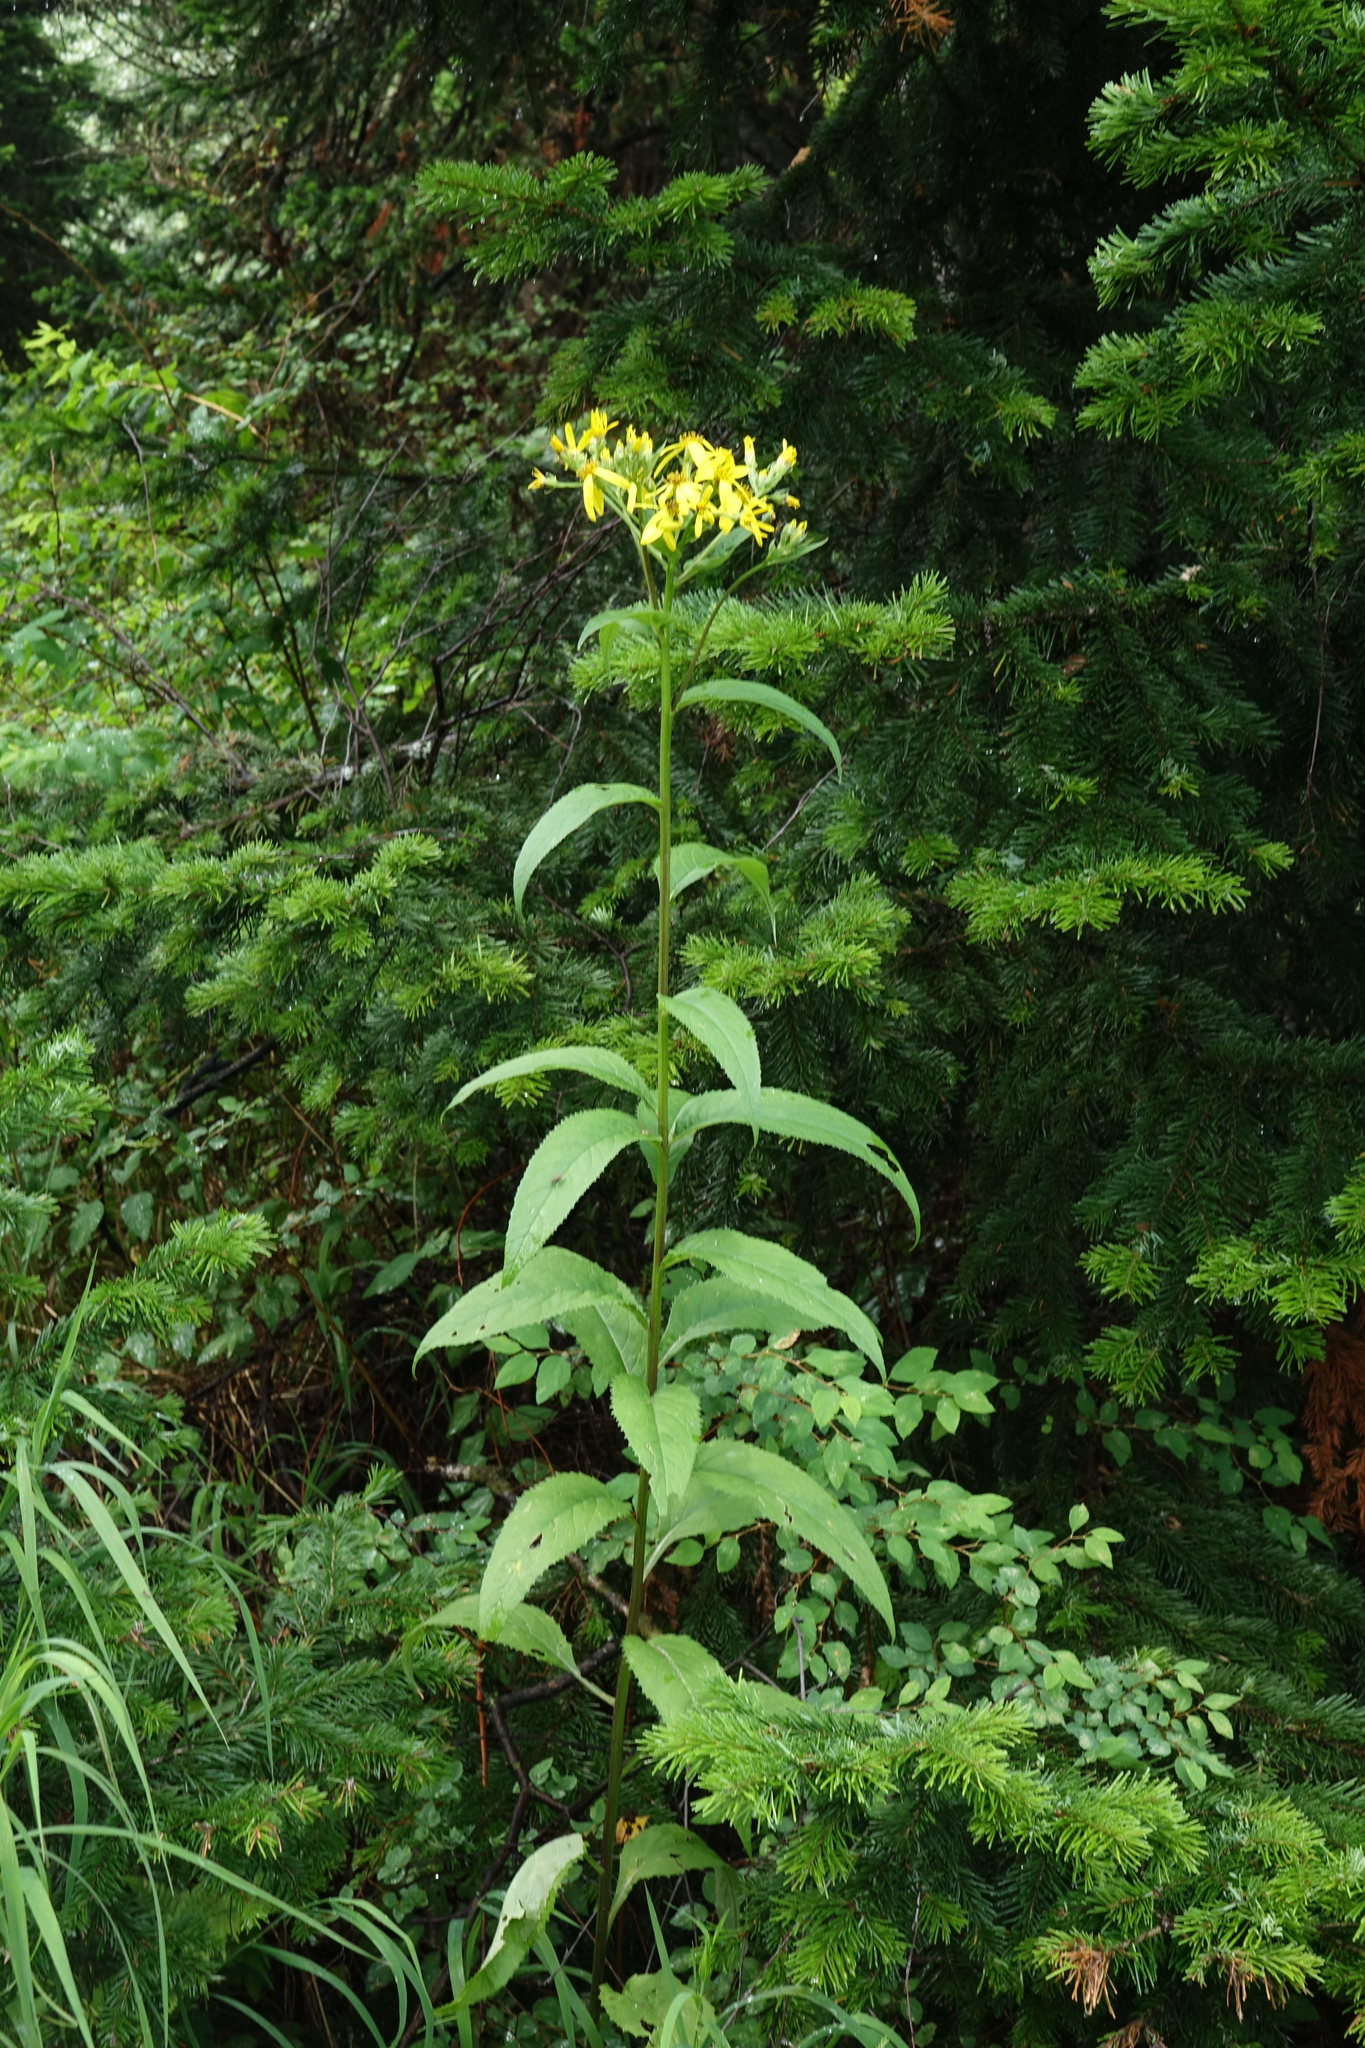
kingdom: Plantae
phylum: Tracheophyta
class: Magnoliopsida
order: Asterales
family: Asteraceae
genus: Senecio
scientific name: Senecio nemorensis
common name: Alpine ragwort
